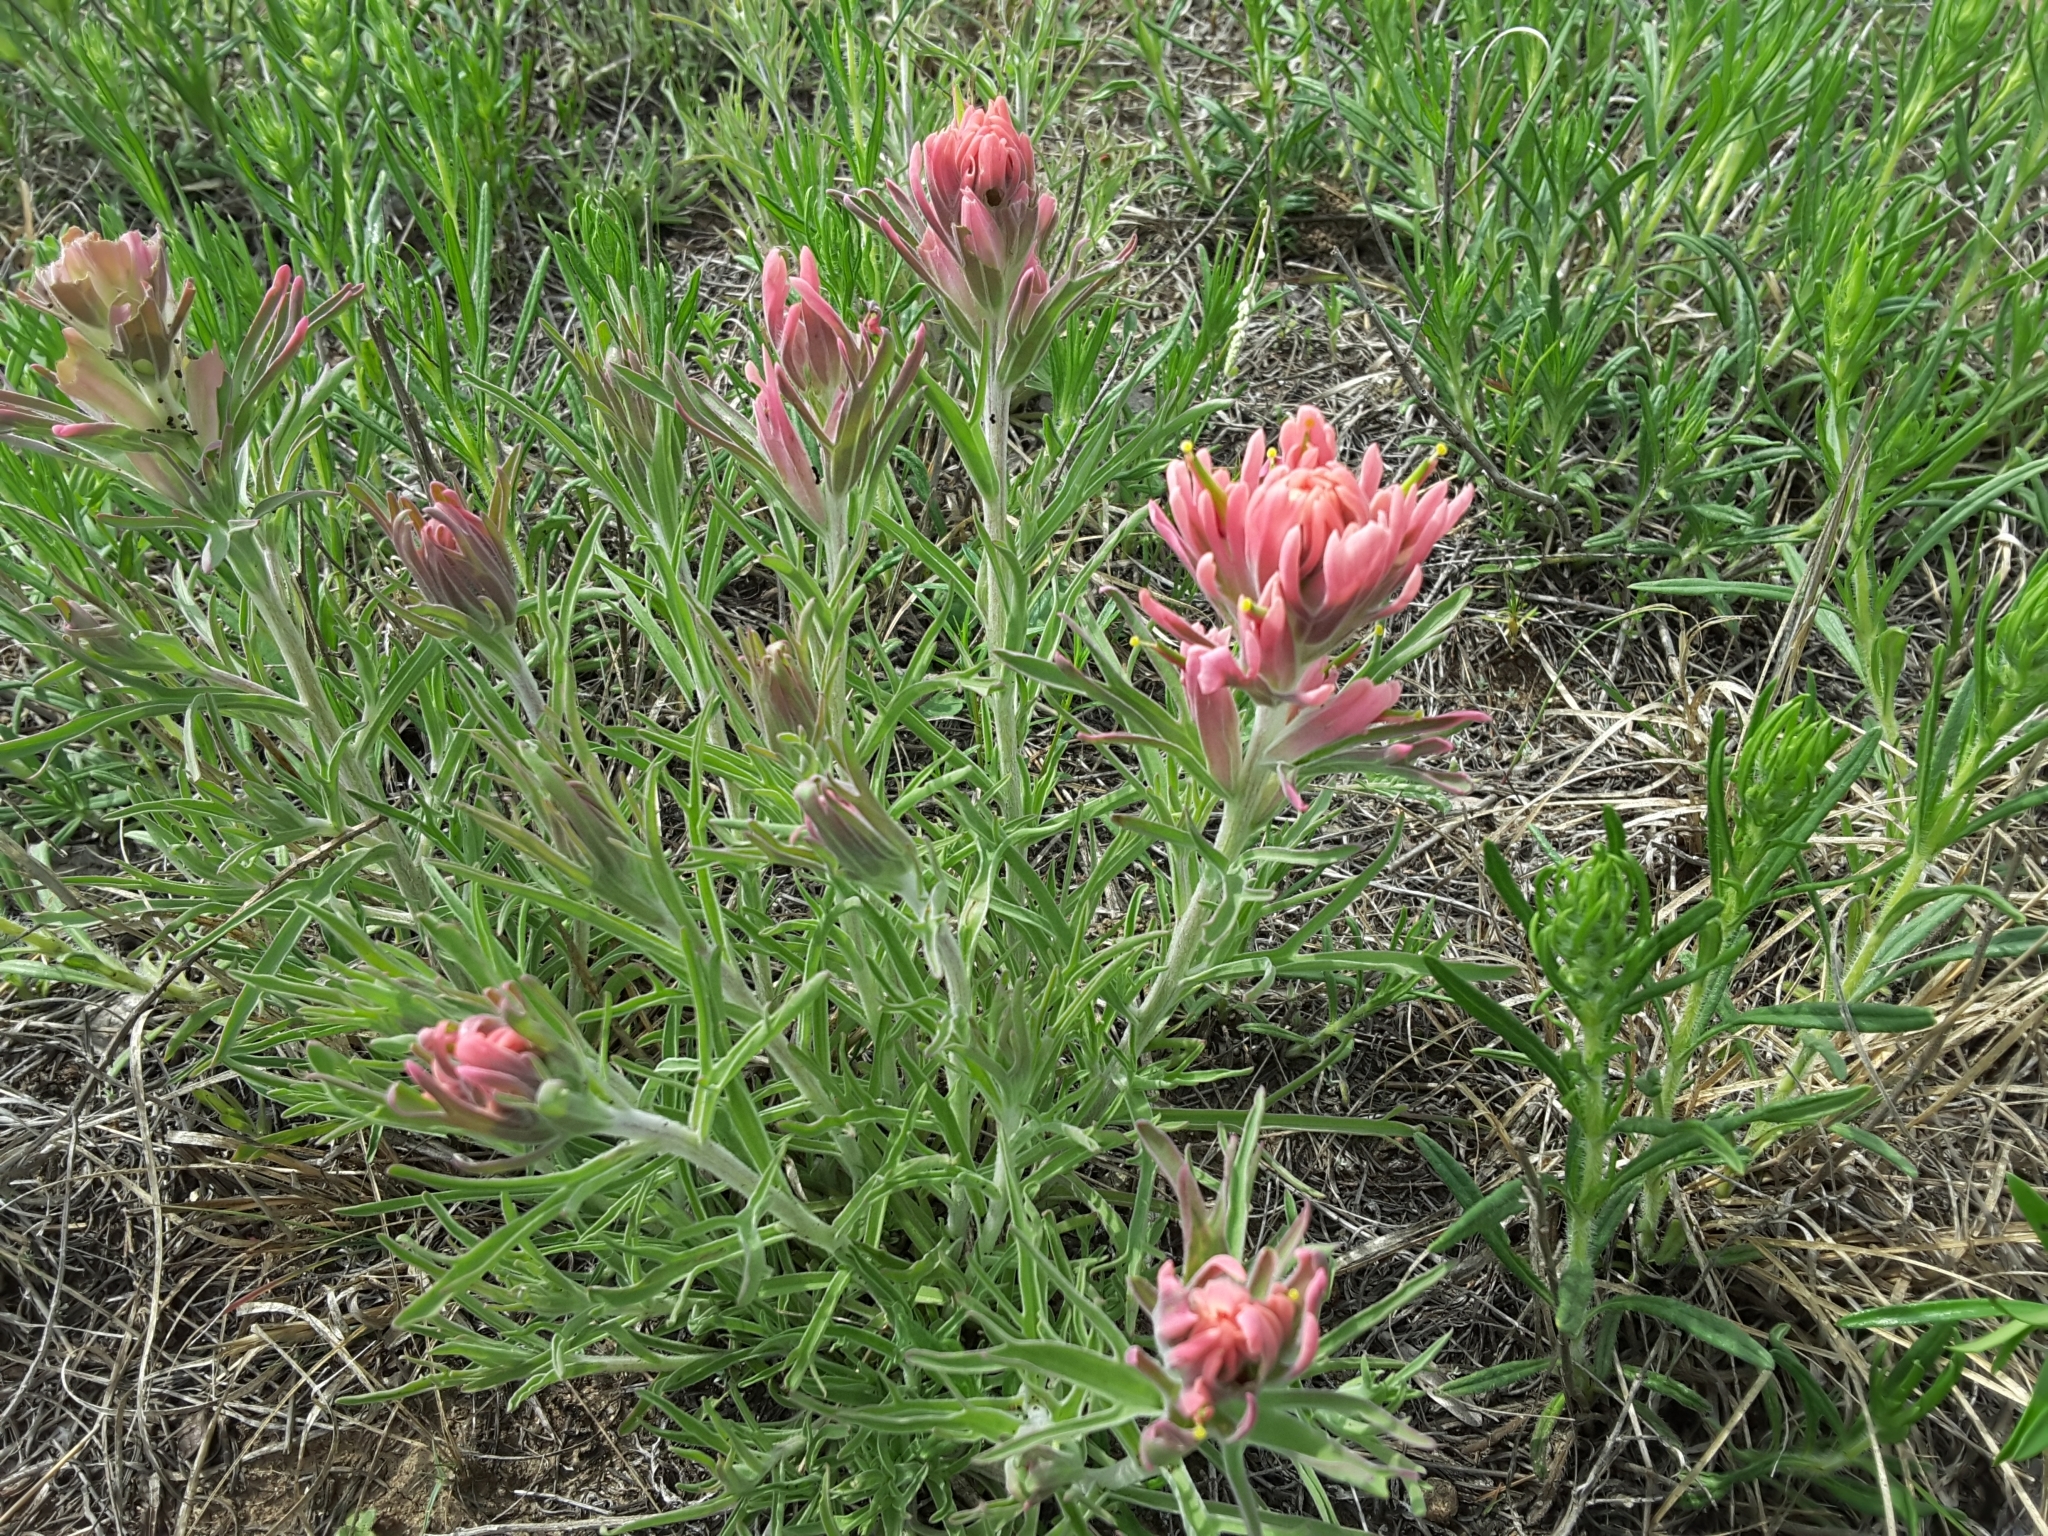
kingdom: Plantae
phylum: Tracheophyta
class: Magnoliopsida
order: Lamiales
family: Orobanchaceae
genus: Castilleja
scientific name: Castilleja purpurea
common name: Plains paintbrush
